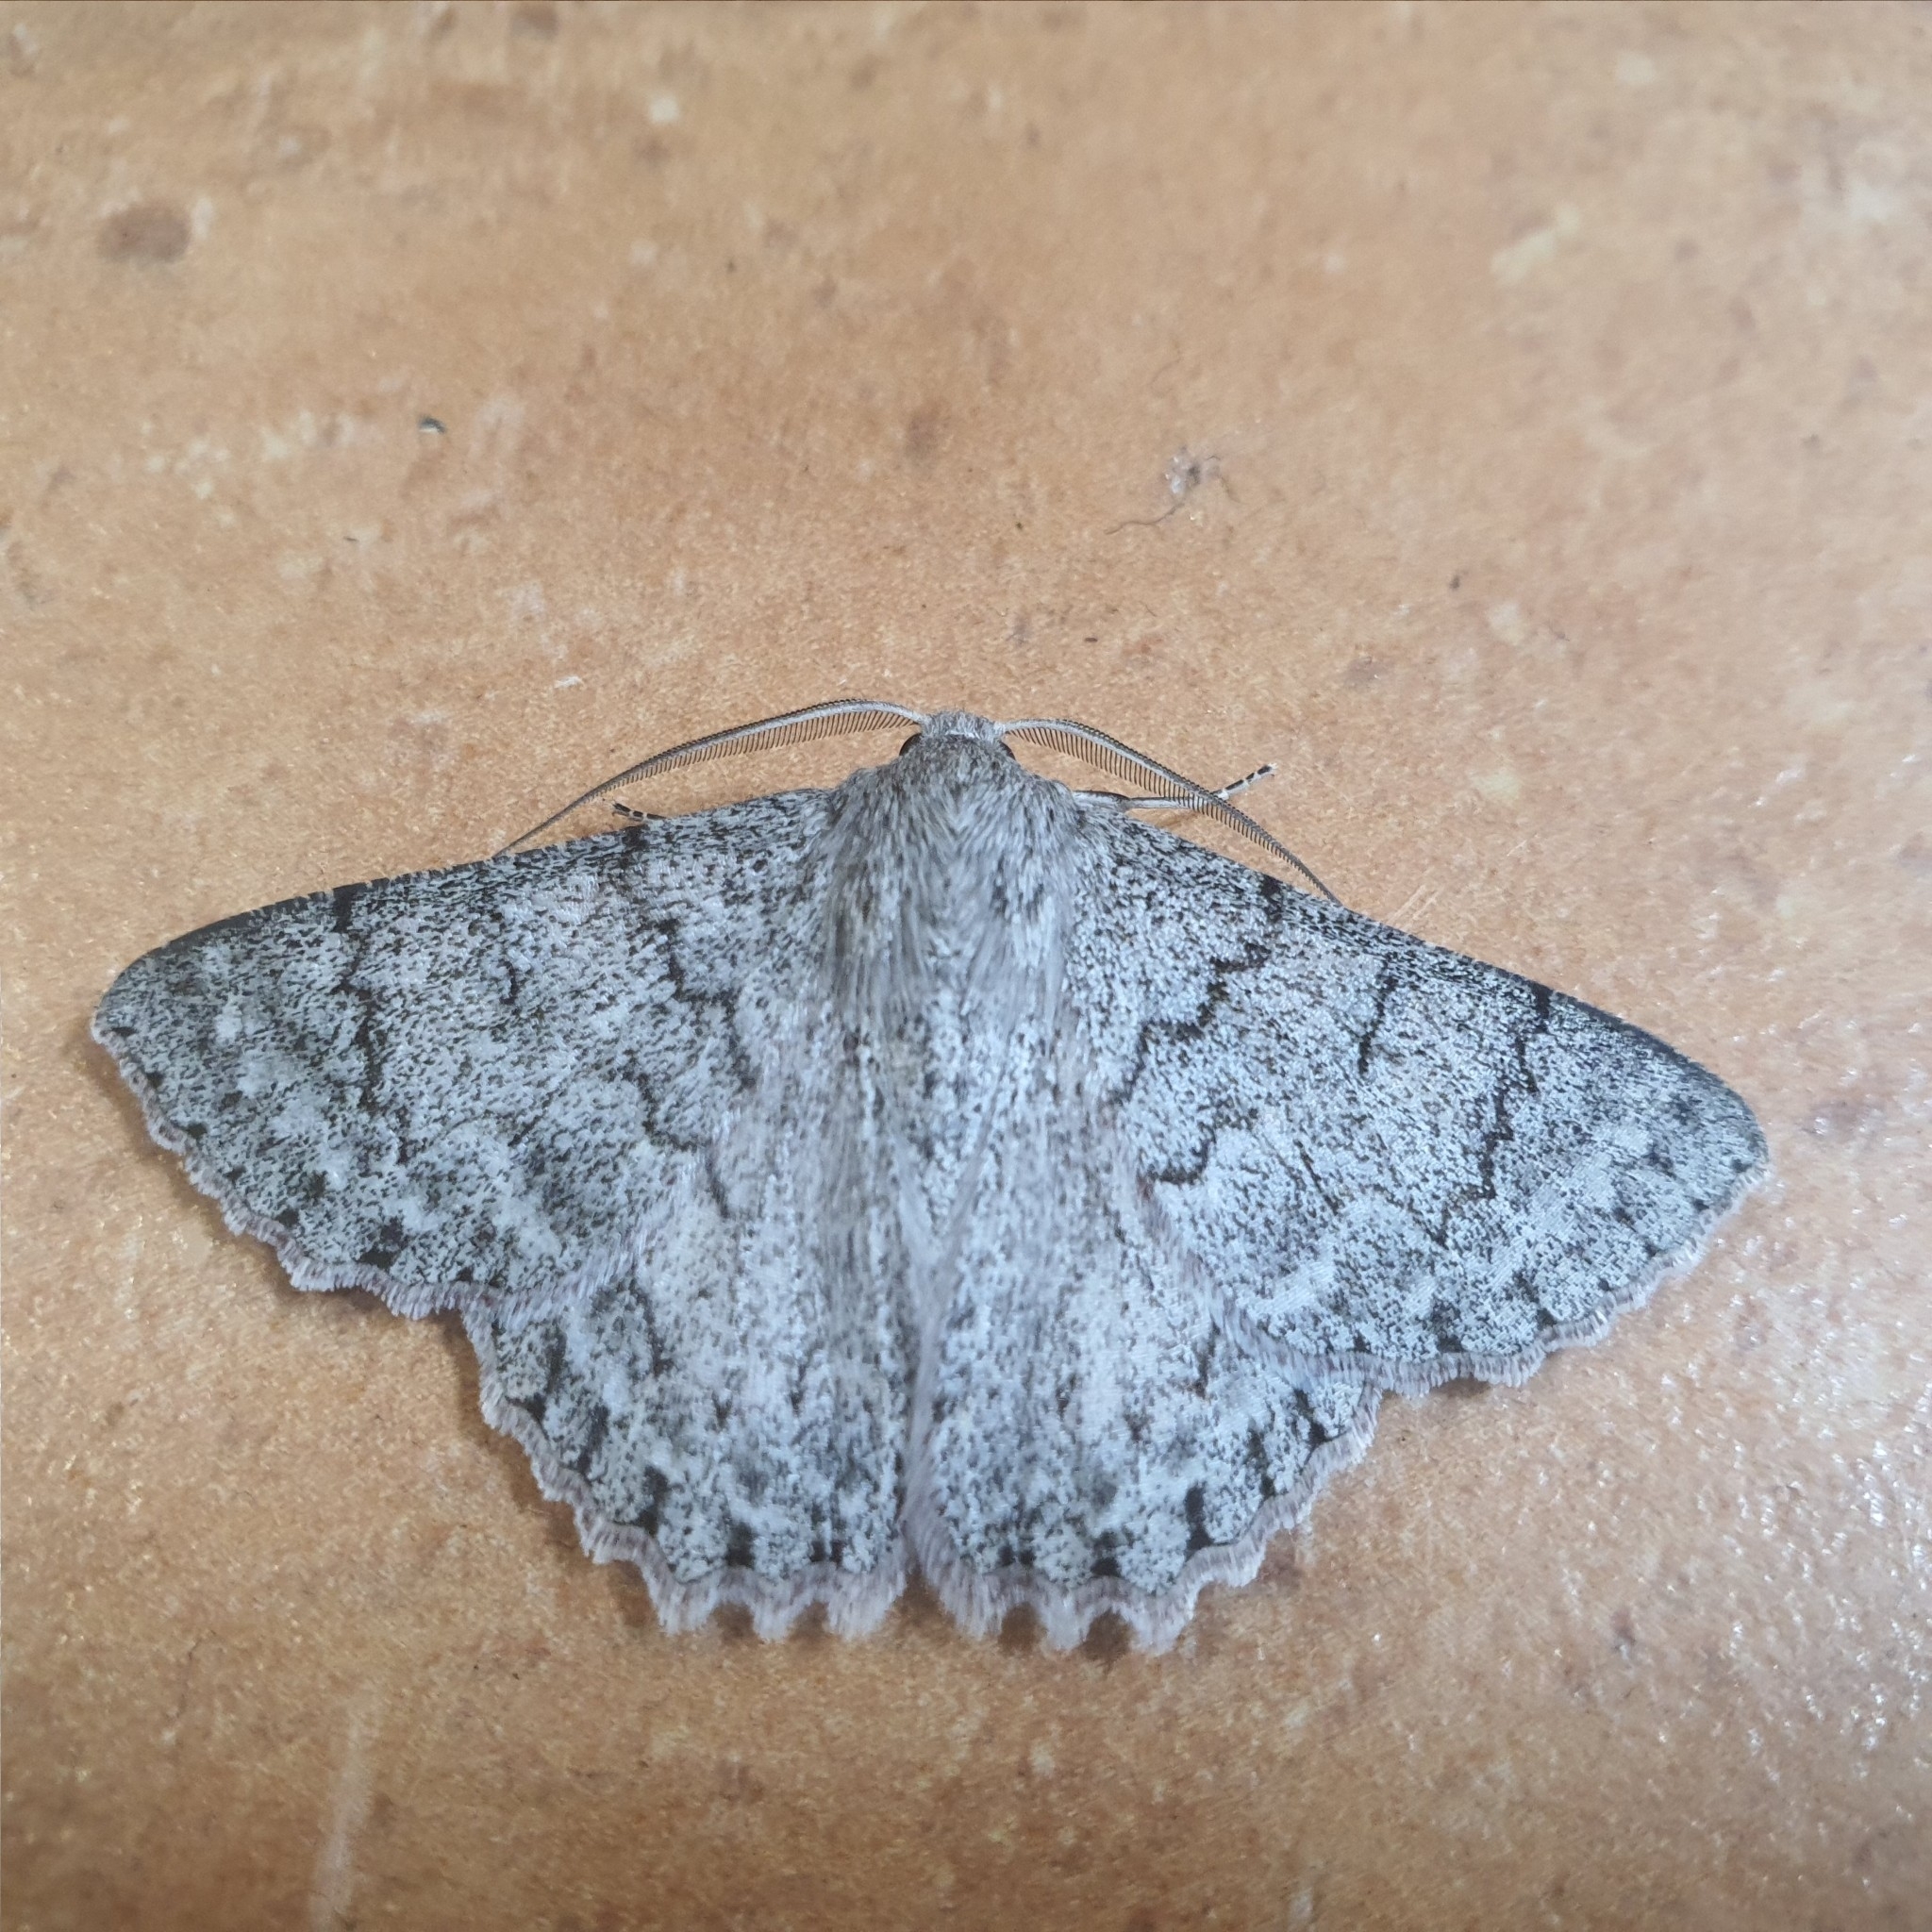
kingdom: Animalia
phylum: Arthropoda
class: Insecta
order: Lepidoptera
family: Geometridae
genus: Crypsiphona
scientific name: Crypsiphona ocultaria
